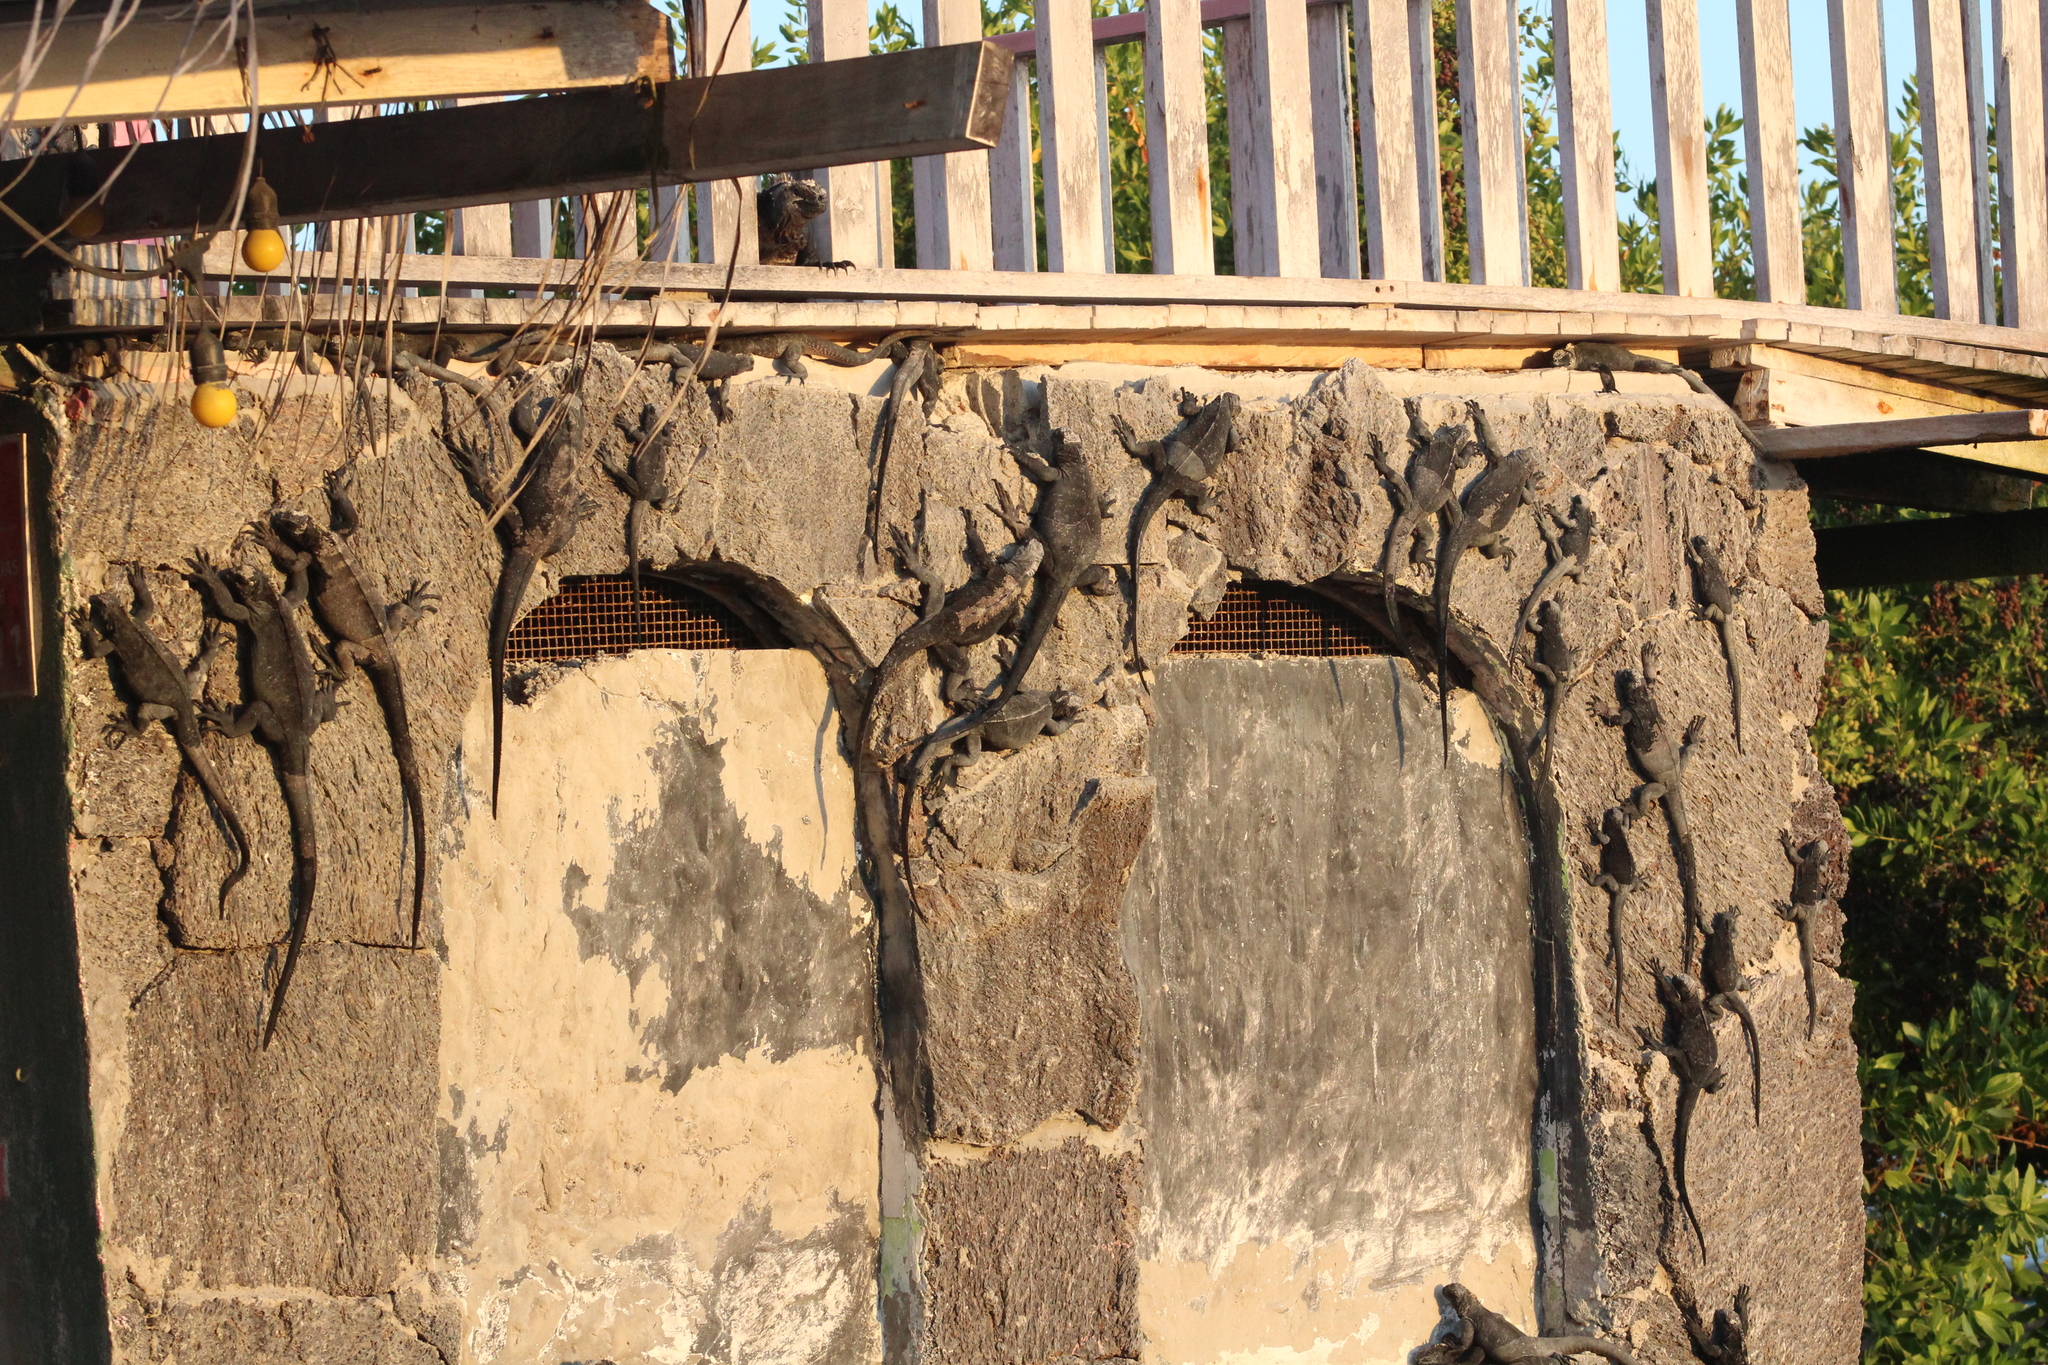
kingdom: Animalia
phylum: Chordata
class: Squamata
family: Iguanidae
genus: Amblyrhynchus
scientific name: Amblyrhynchus cristatus
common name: Marine iguana
